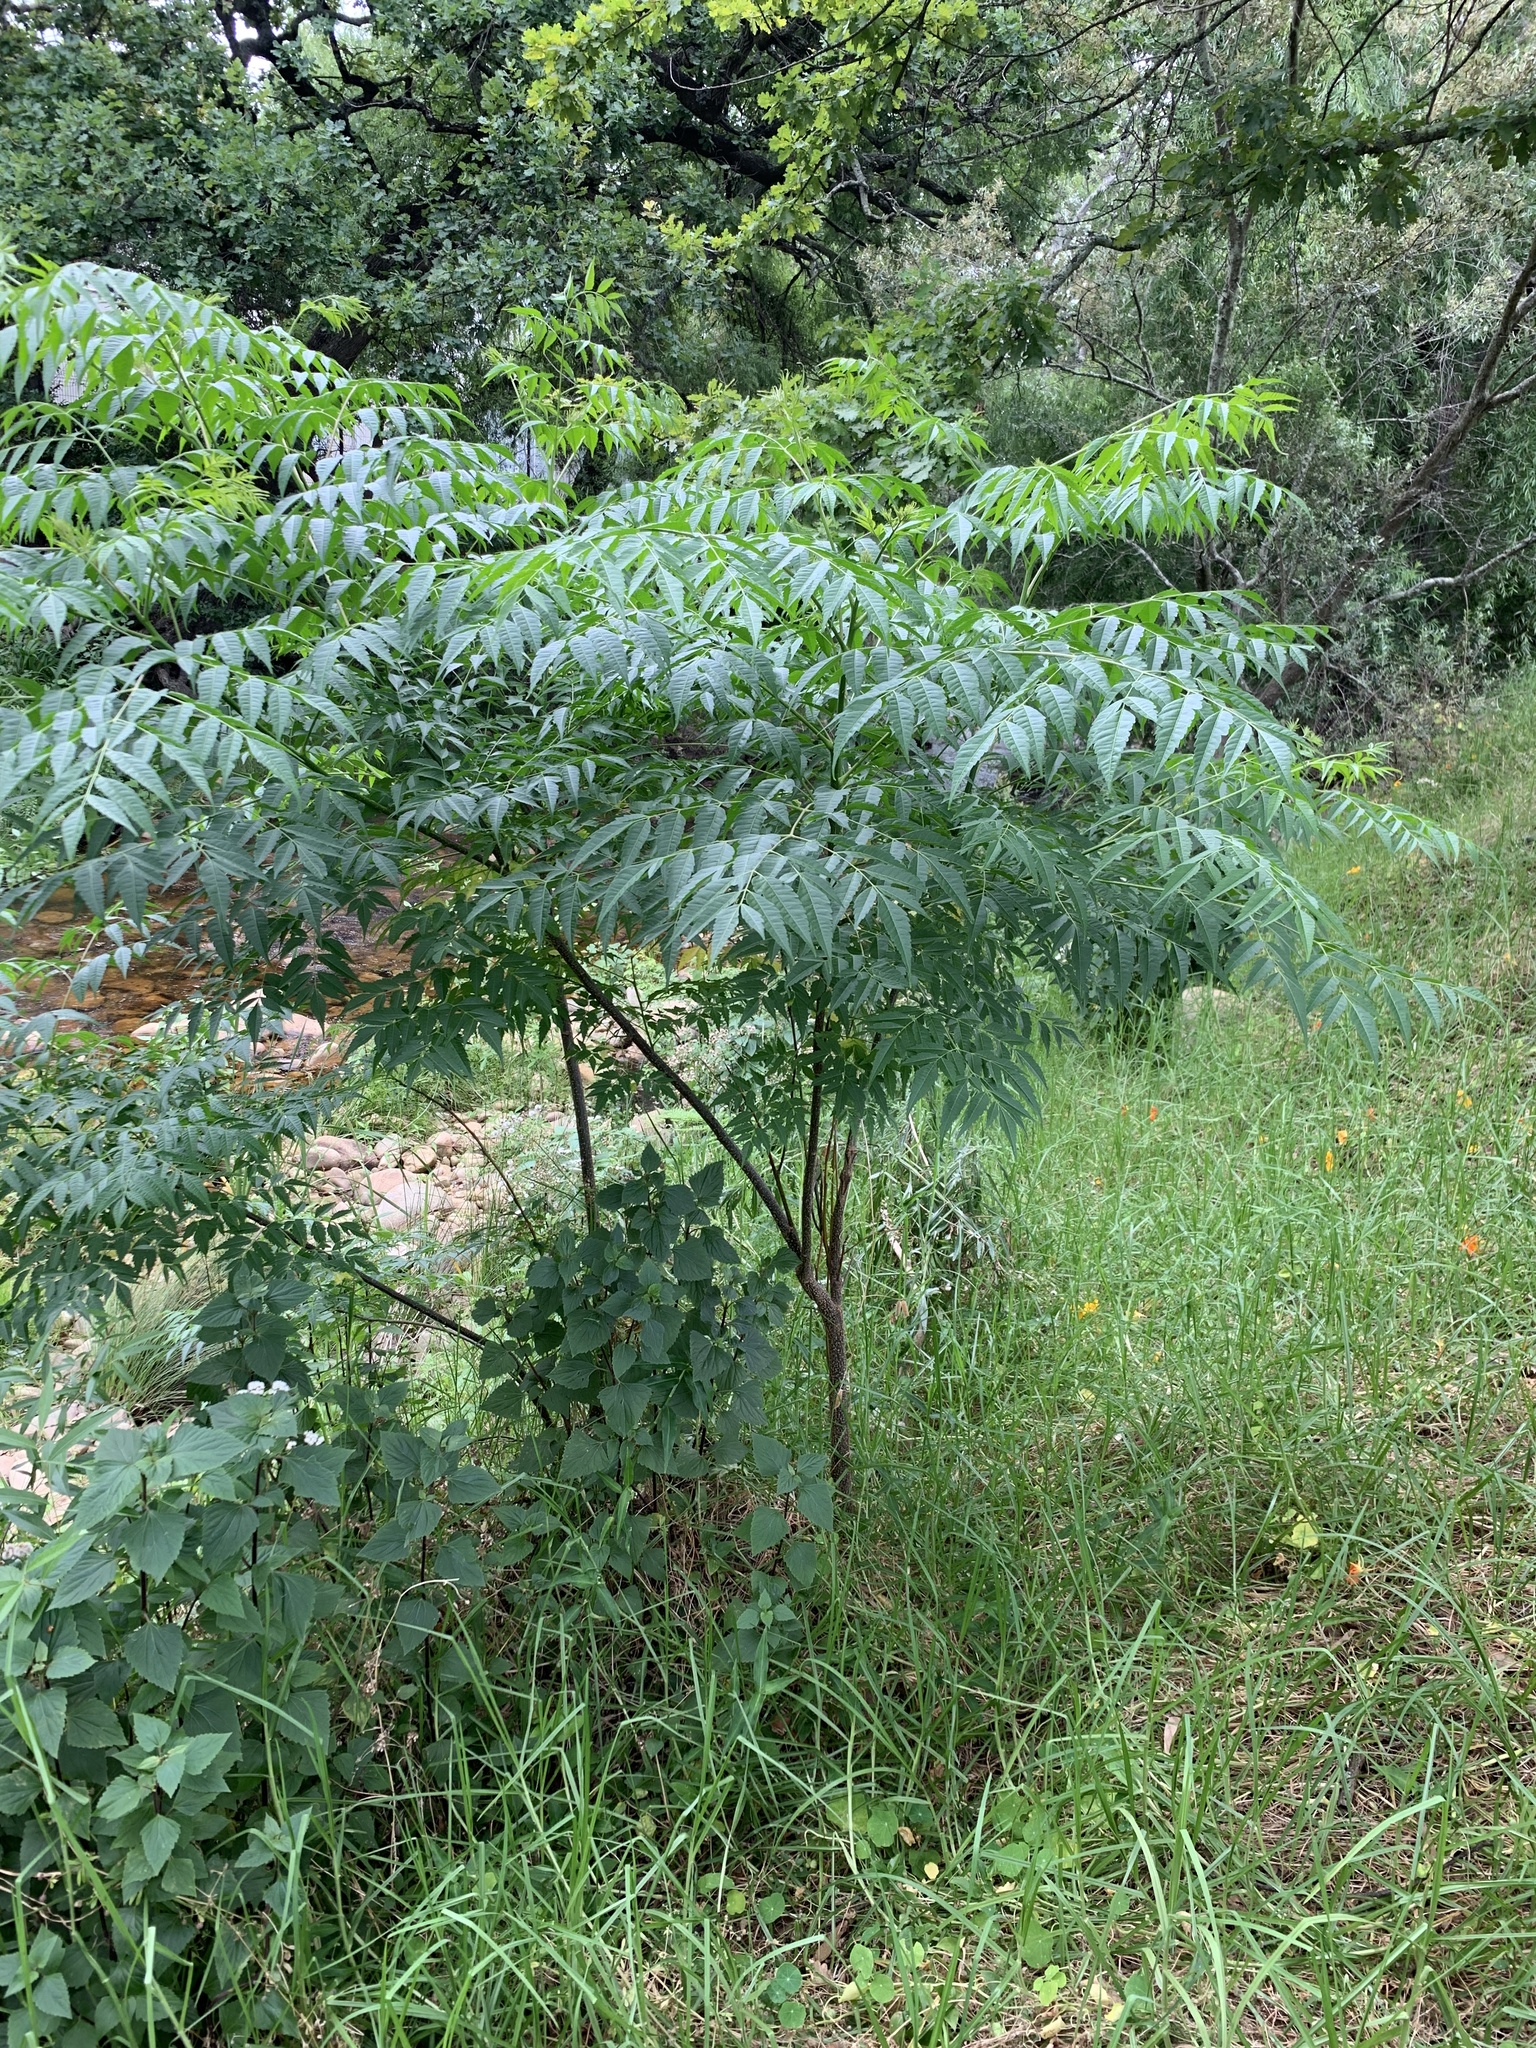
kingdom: Plantae
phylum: Tracheophyta
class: Magnoliopsida
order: Sapindales
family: Meliaceae
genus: Melia
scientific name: Melia azedarach
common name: Chinaberrytree
